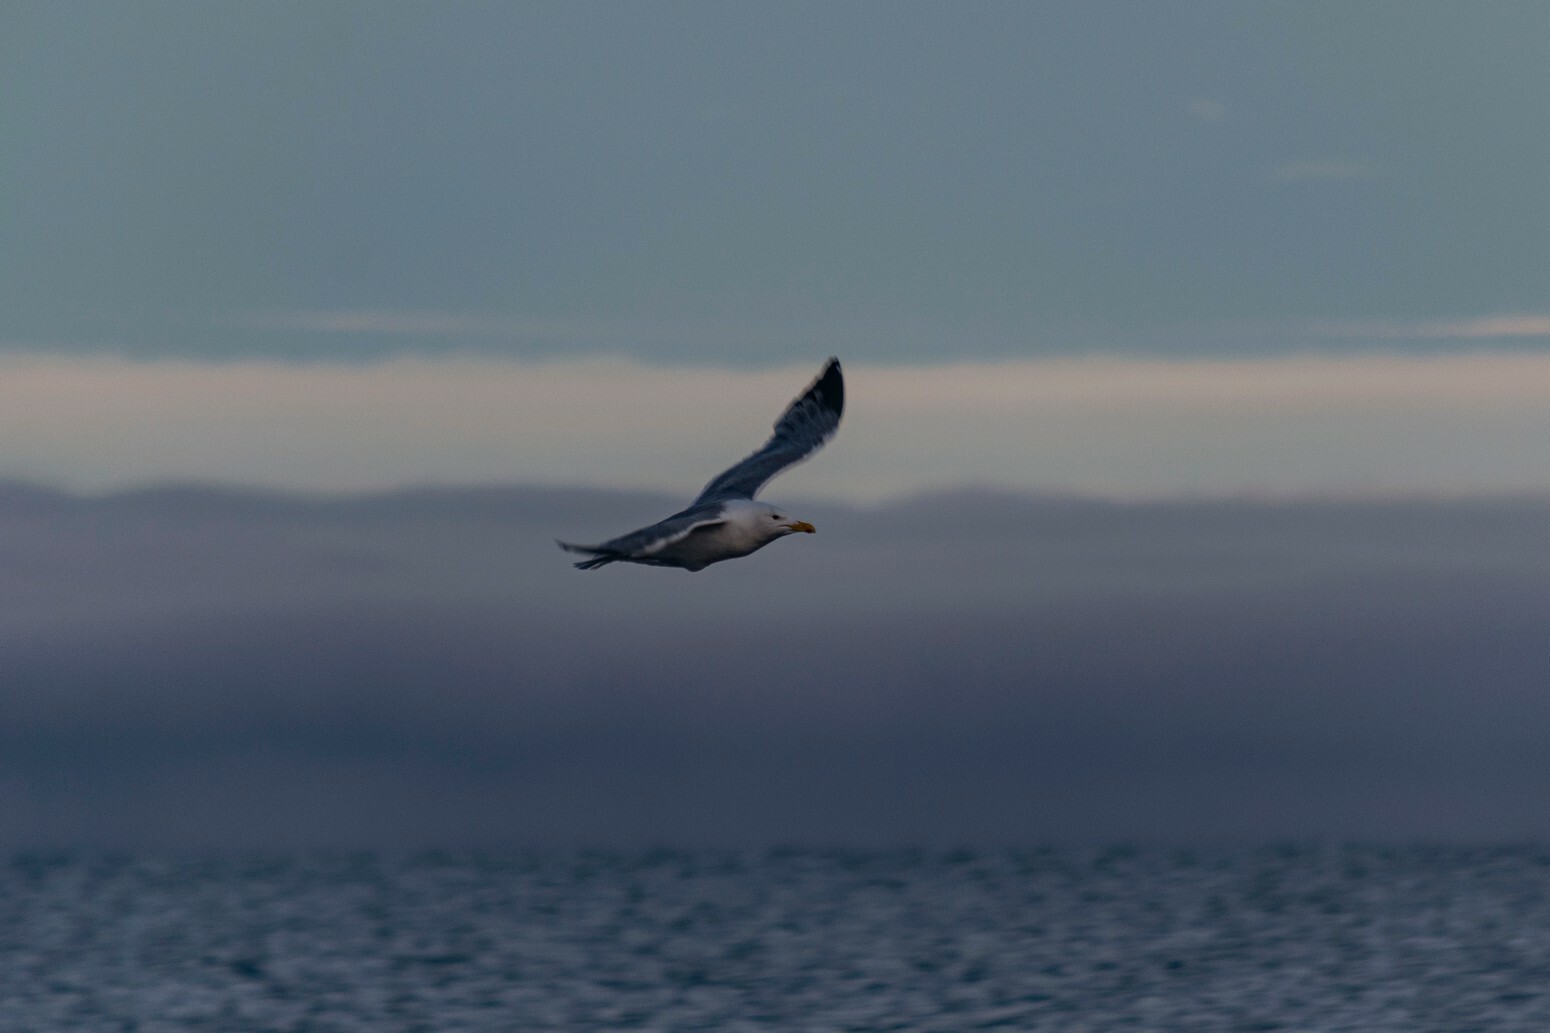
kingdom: Animalia
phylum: Chordata
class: Aves
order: Charadriiformes
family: Laridae
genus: Larus
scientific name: Larus vegae
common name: Vega gull
